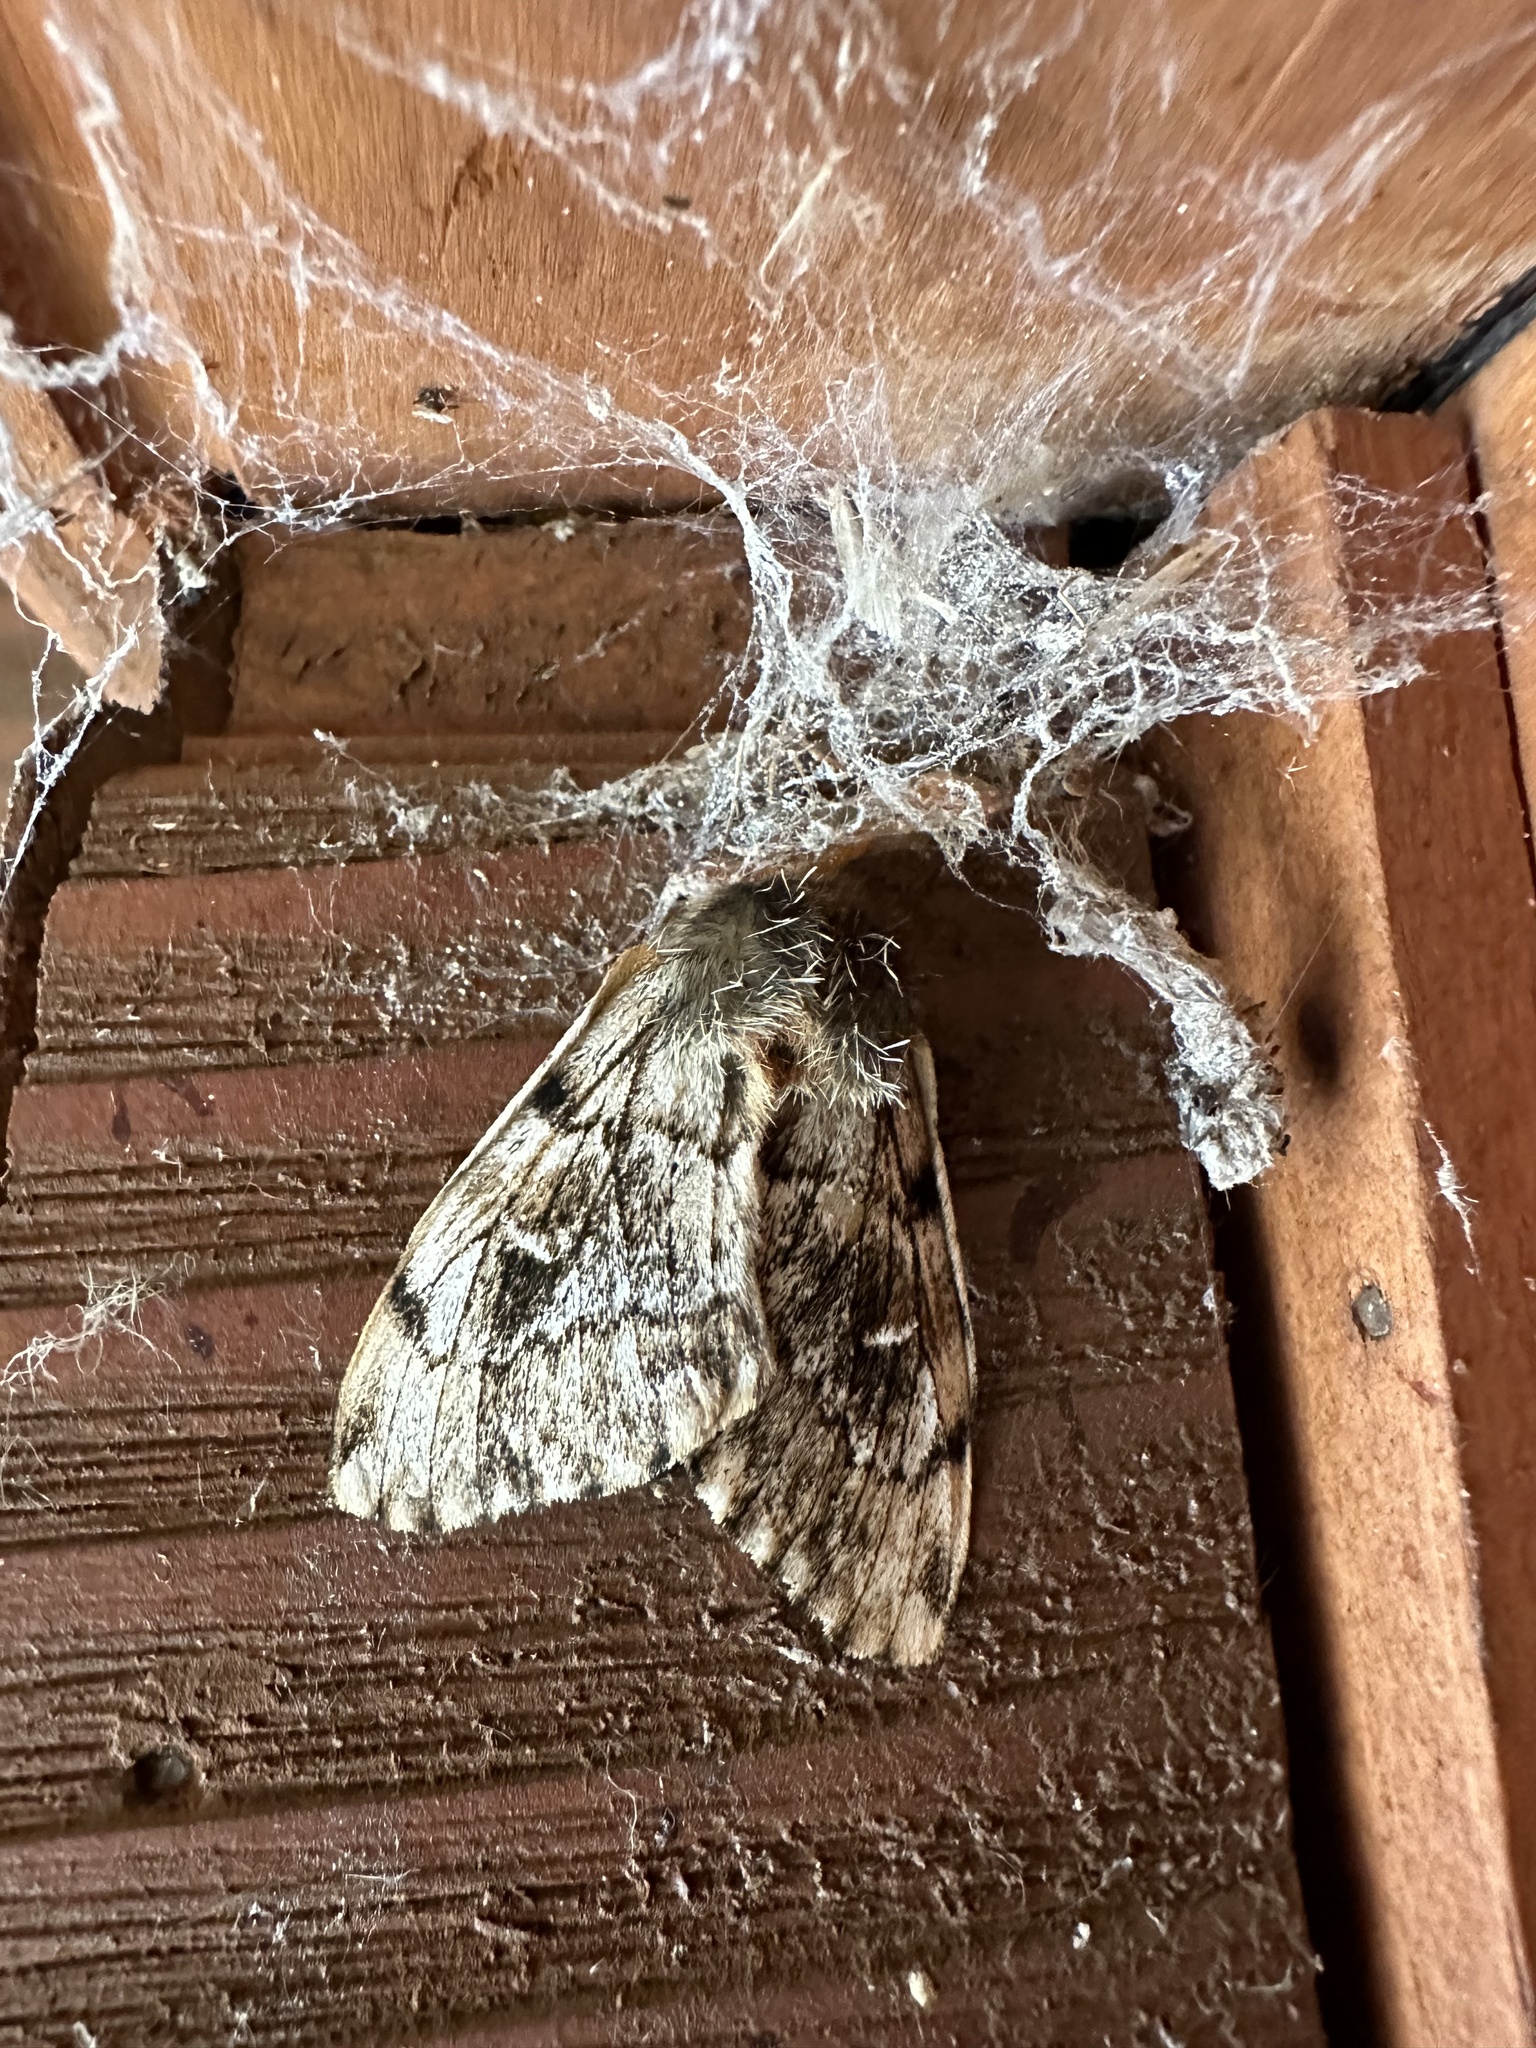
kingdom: Animalia
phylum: Arthropoda
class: Insecta
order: Lepidoptera
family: Saturniidae
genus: Ormiscodes
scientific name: Ormiscodes nigrosignata
